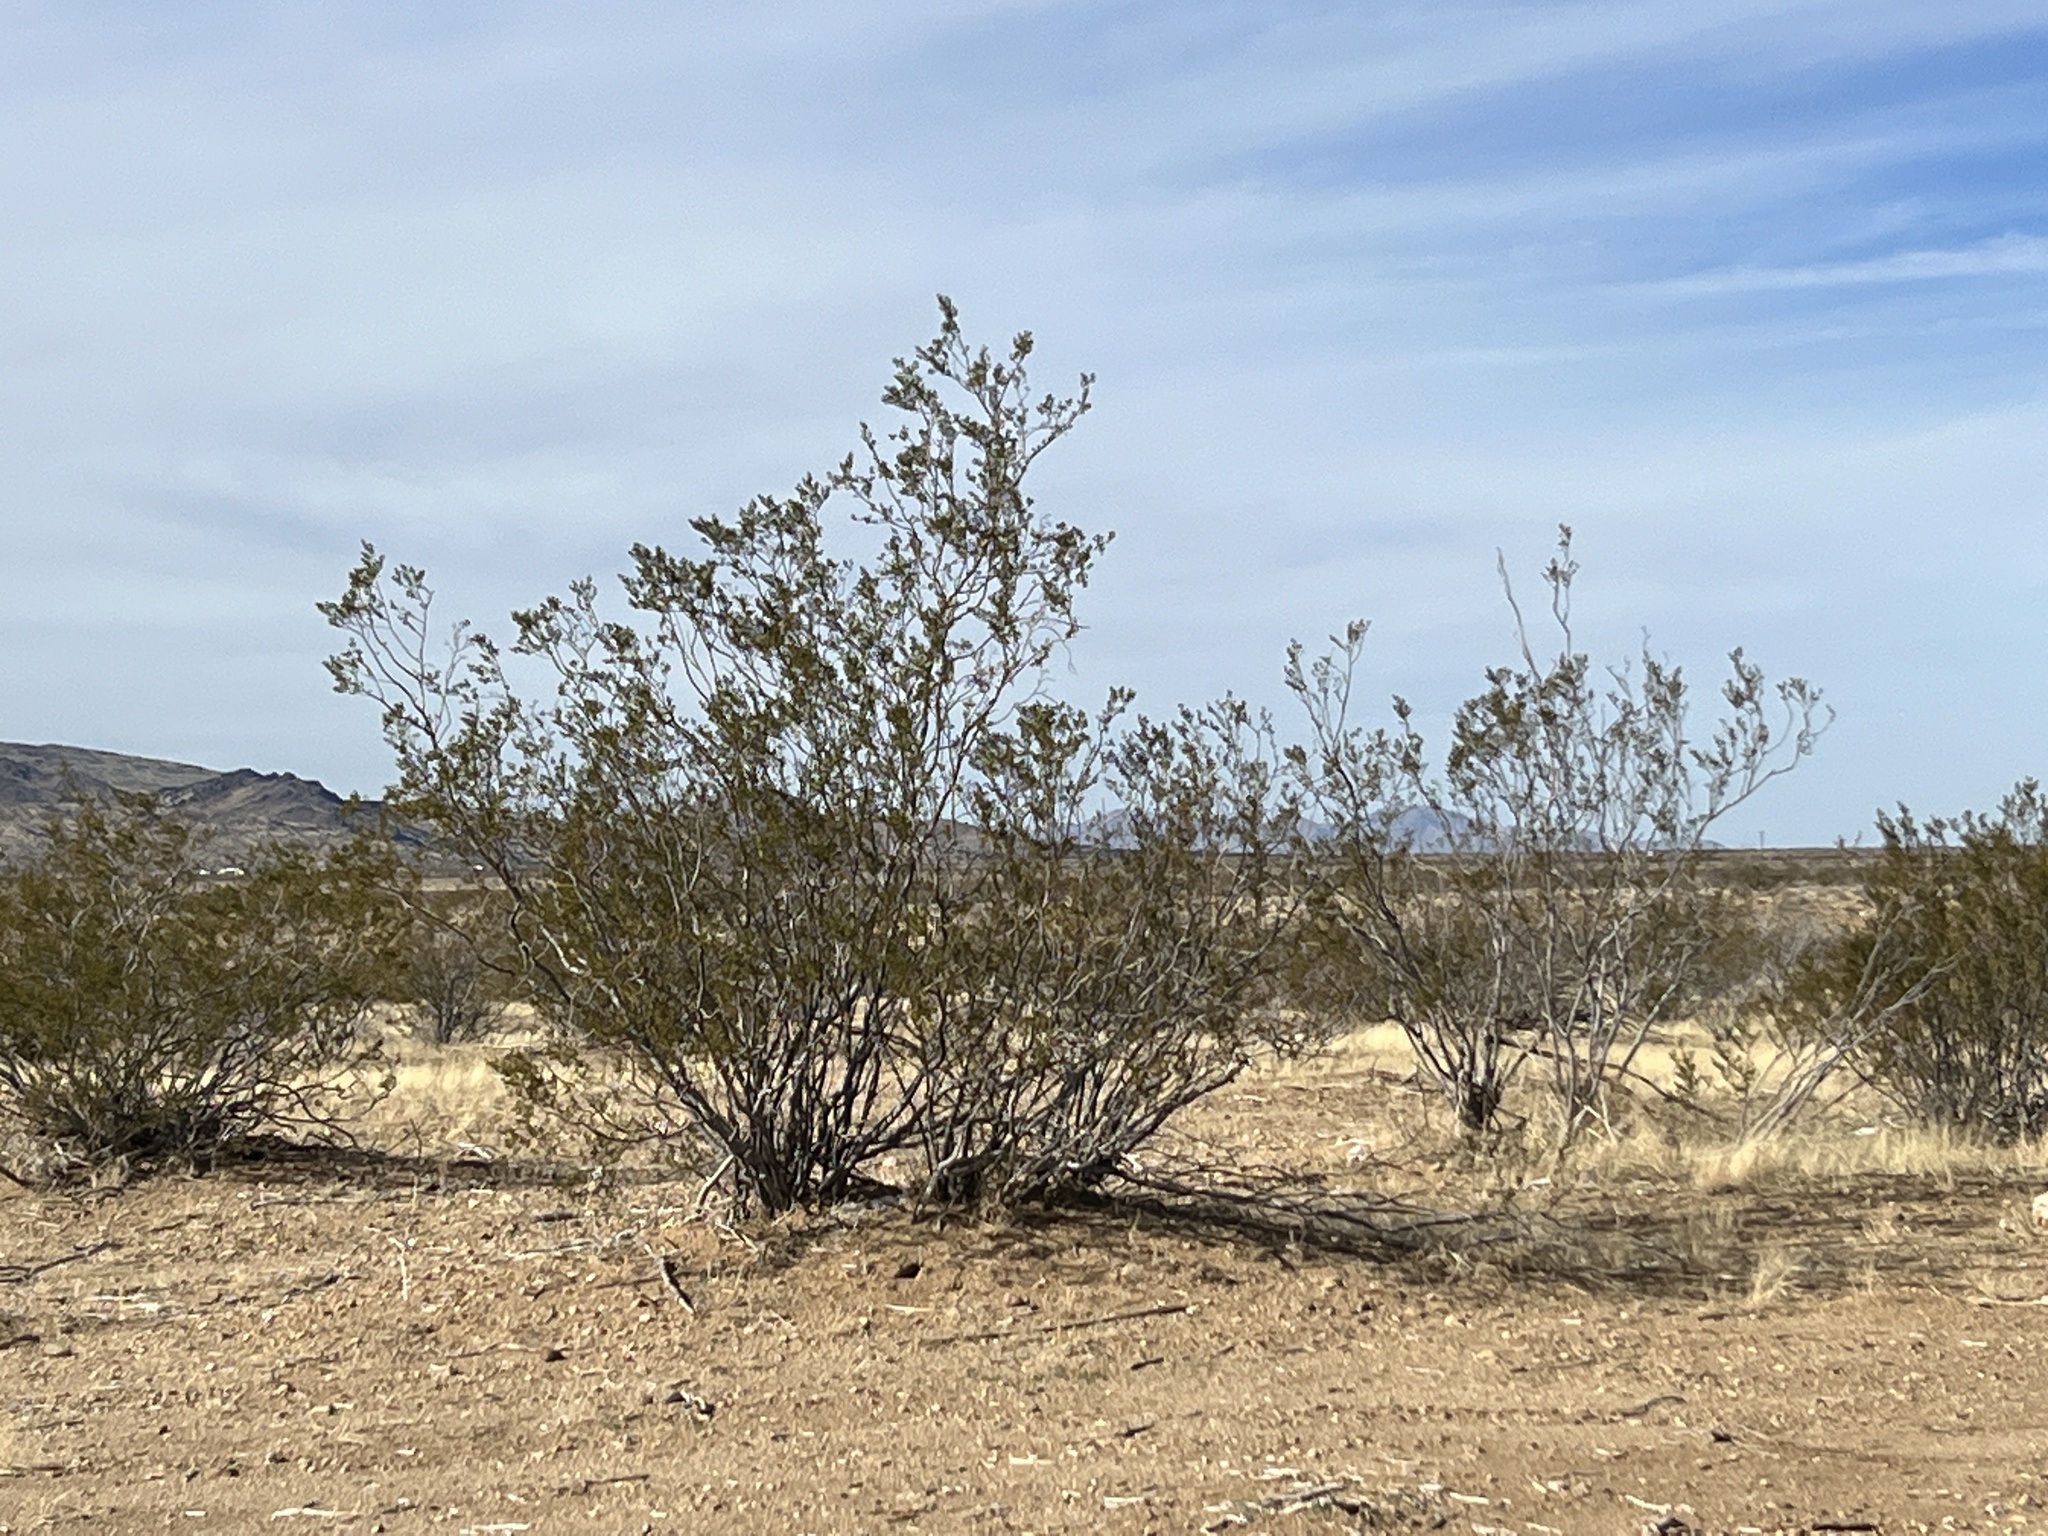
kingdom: Plantae
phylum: Tracheophyta
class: Magnoliopsida
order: Zygophyllales
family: Zygophyllaceae
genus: Larrea
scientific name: Larrea tridentata
